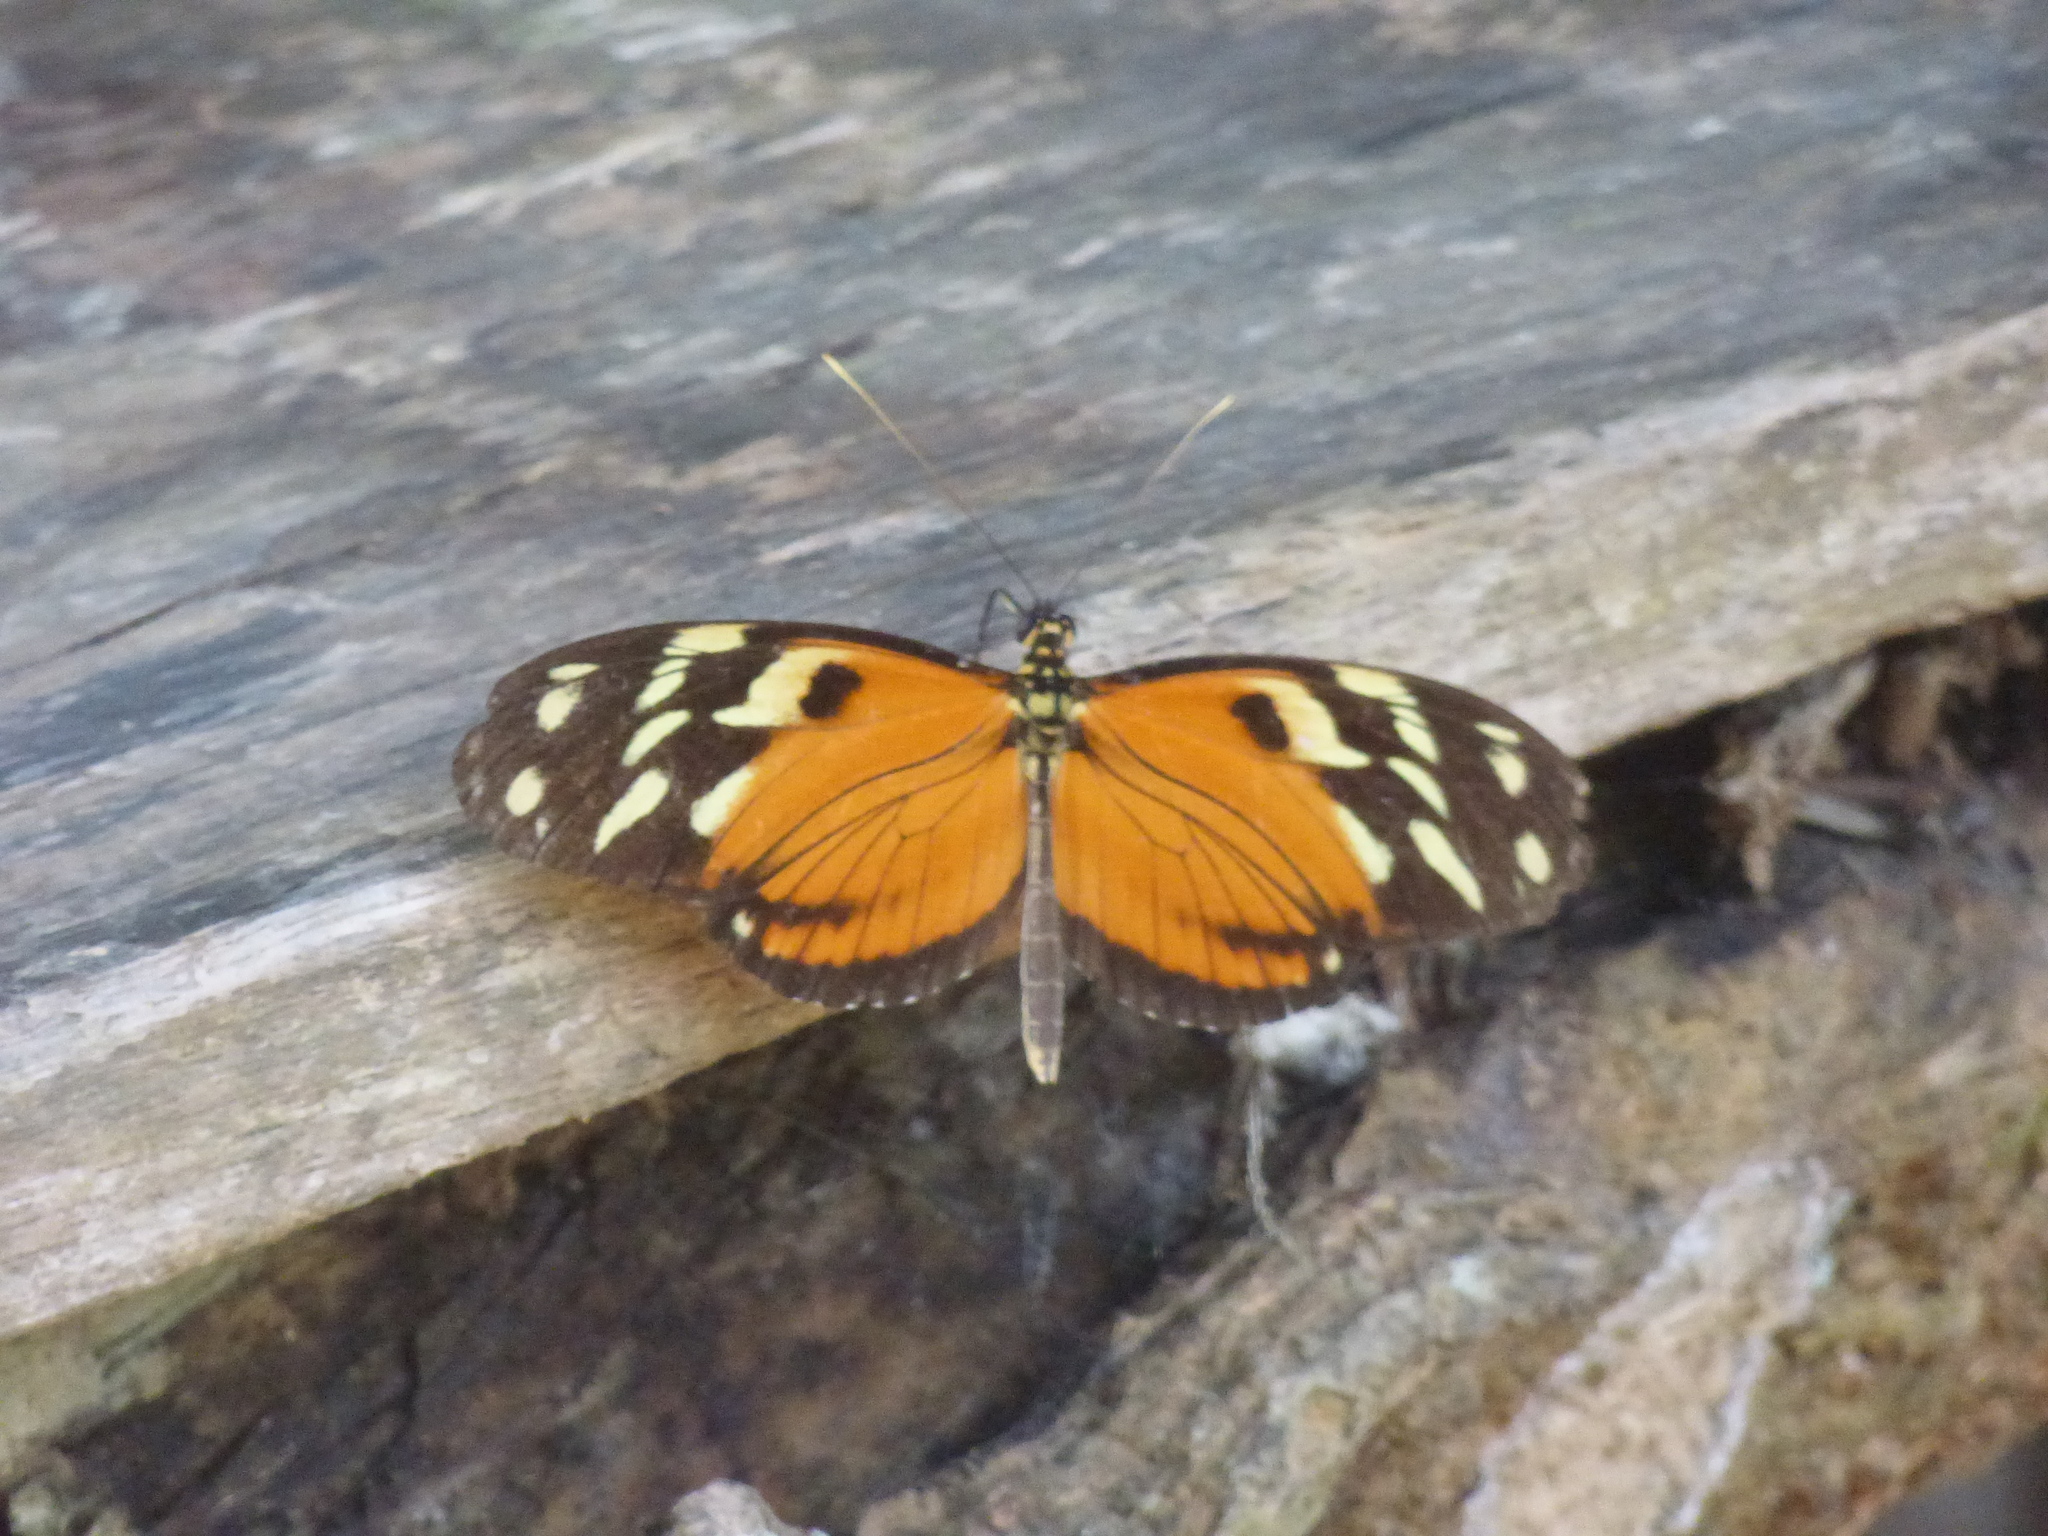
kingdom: Animalia
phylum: Arthropoda
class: Insecta
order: Lepidoptera
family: Nymphalidae
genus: Heliconius
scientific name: Heliconius ismenius
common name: Ismenius tiger
